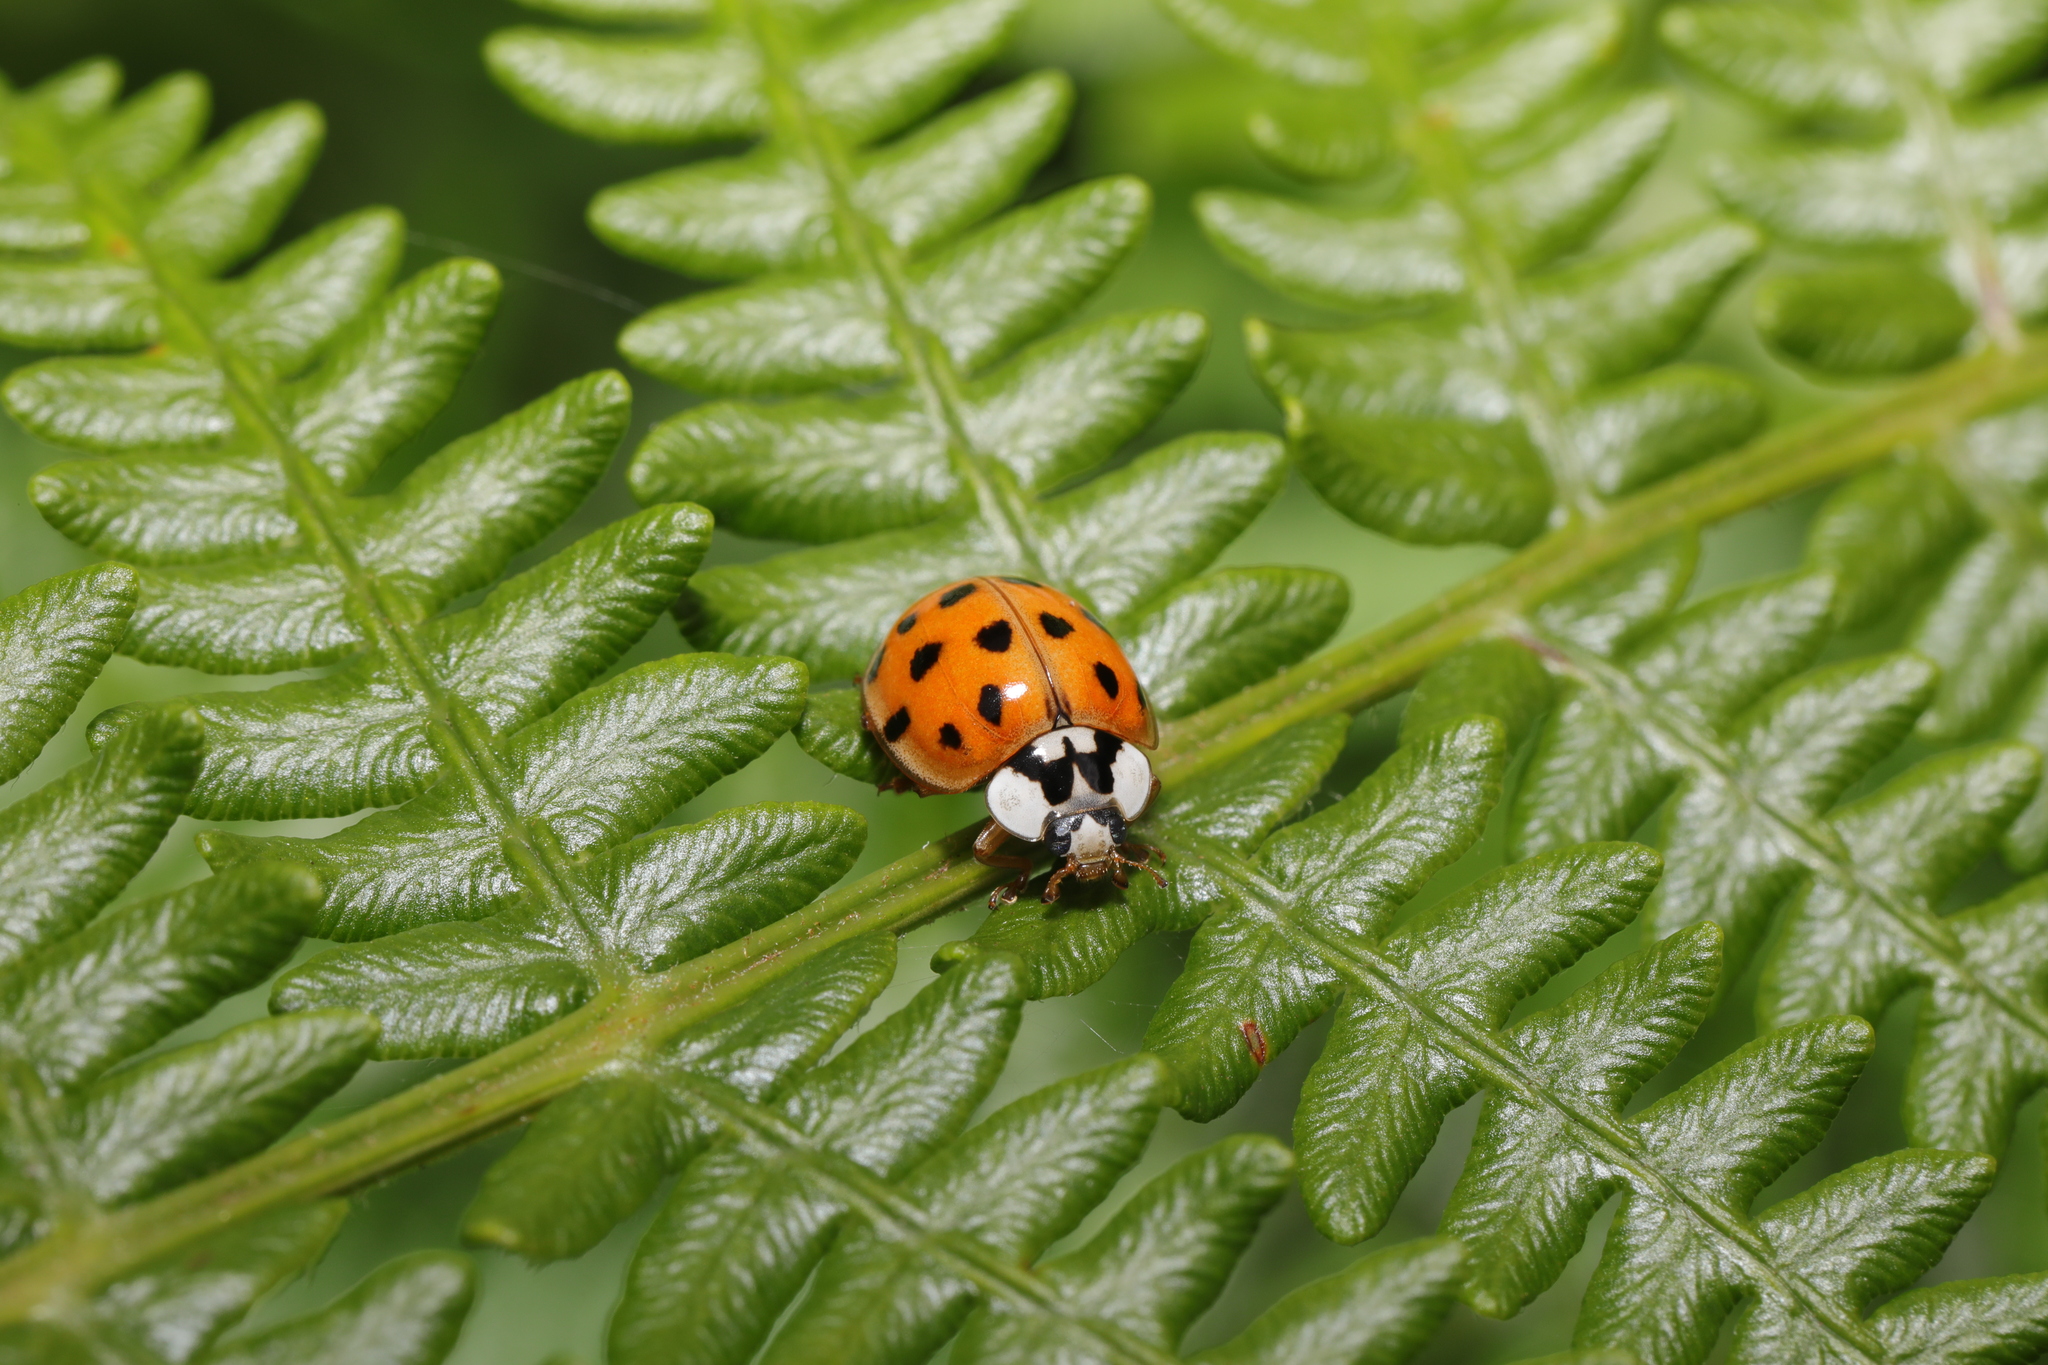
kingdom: Animalia
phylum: Arthropoda
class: Insecta
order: Coleoptera
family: Coccinellidae
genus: Harmonia
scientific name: Harmonia axyridis
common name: Harlequin ladybird
